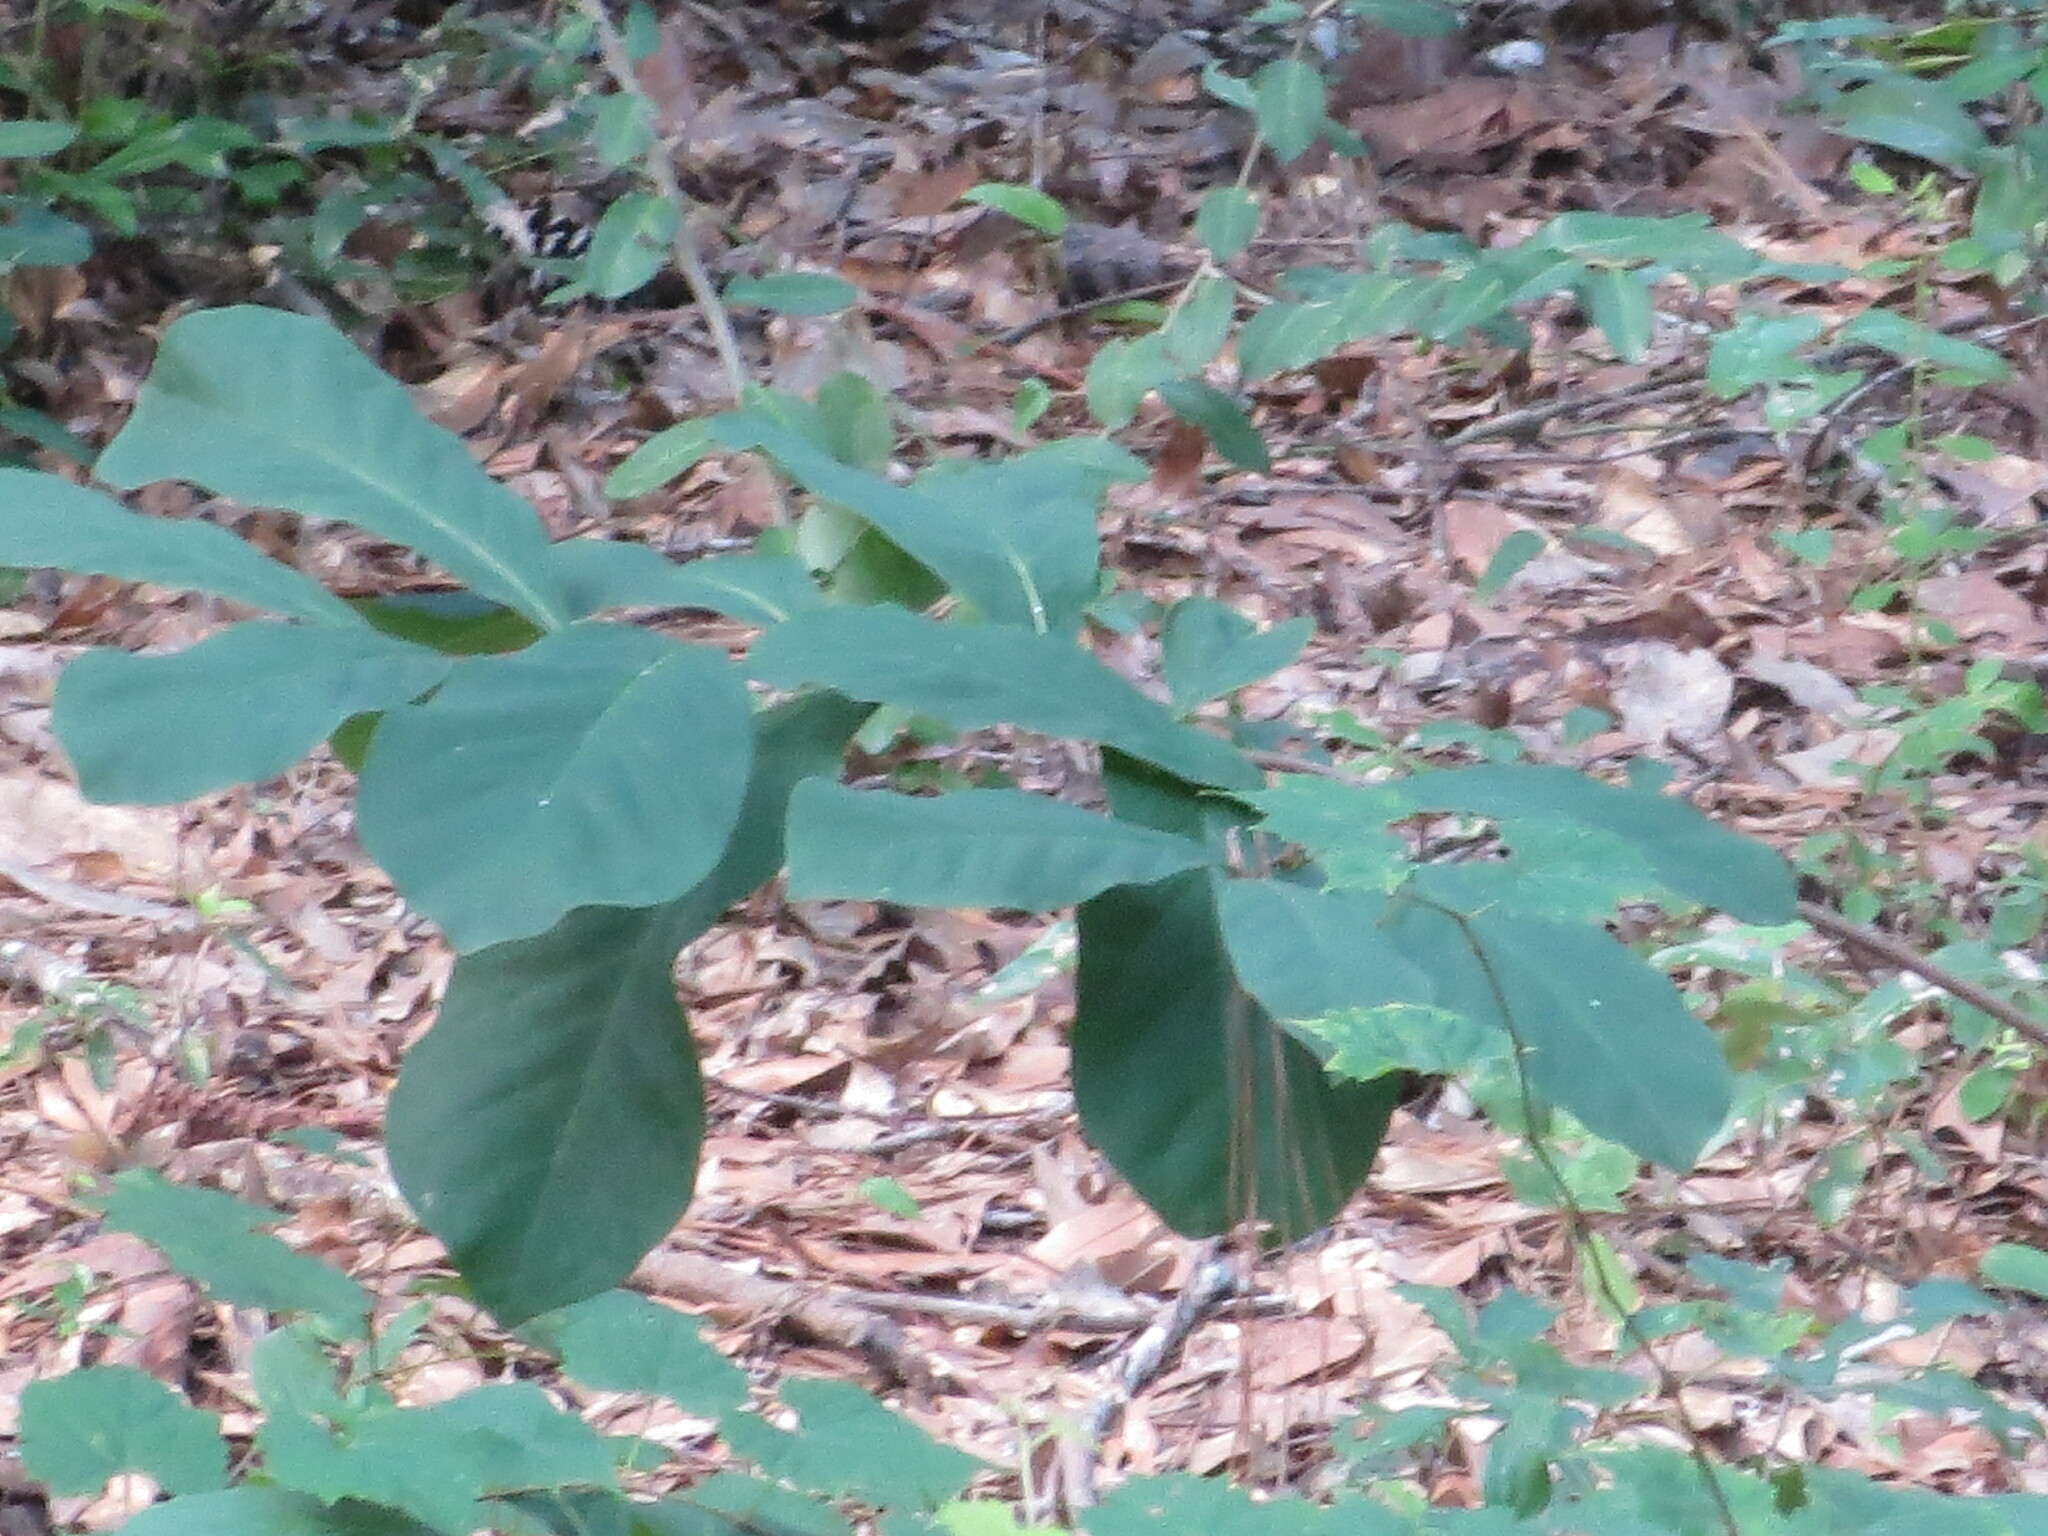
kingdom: Plantae
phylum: Tracheophyta
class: Magnoliopsida
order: Magnoliales
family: Annonaceae
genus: Asimina
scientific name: Asimina parviflora
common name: Dwarf pawpaw
